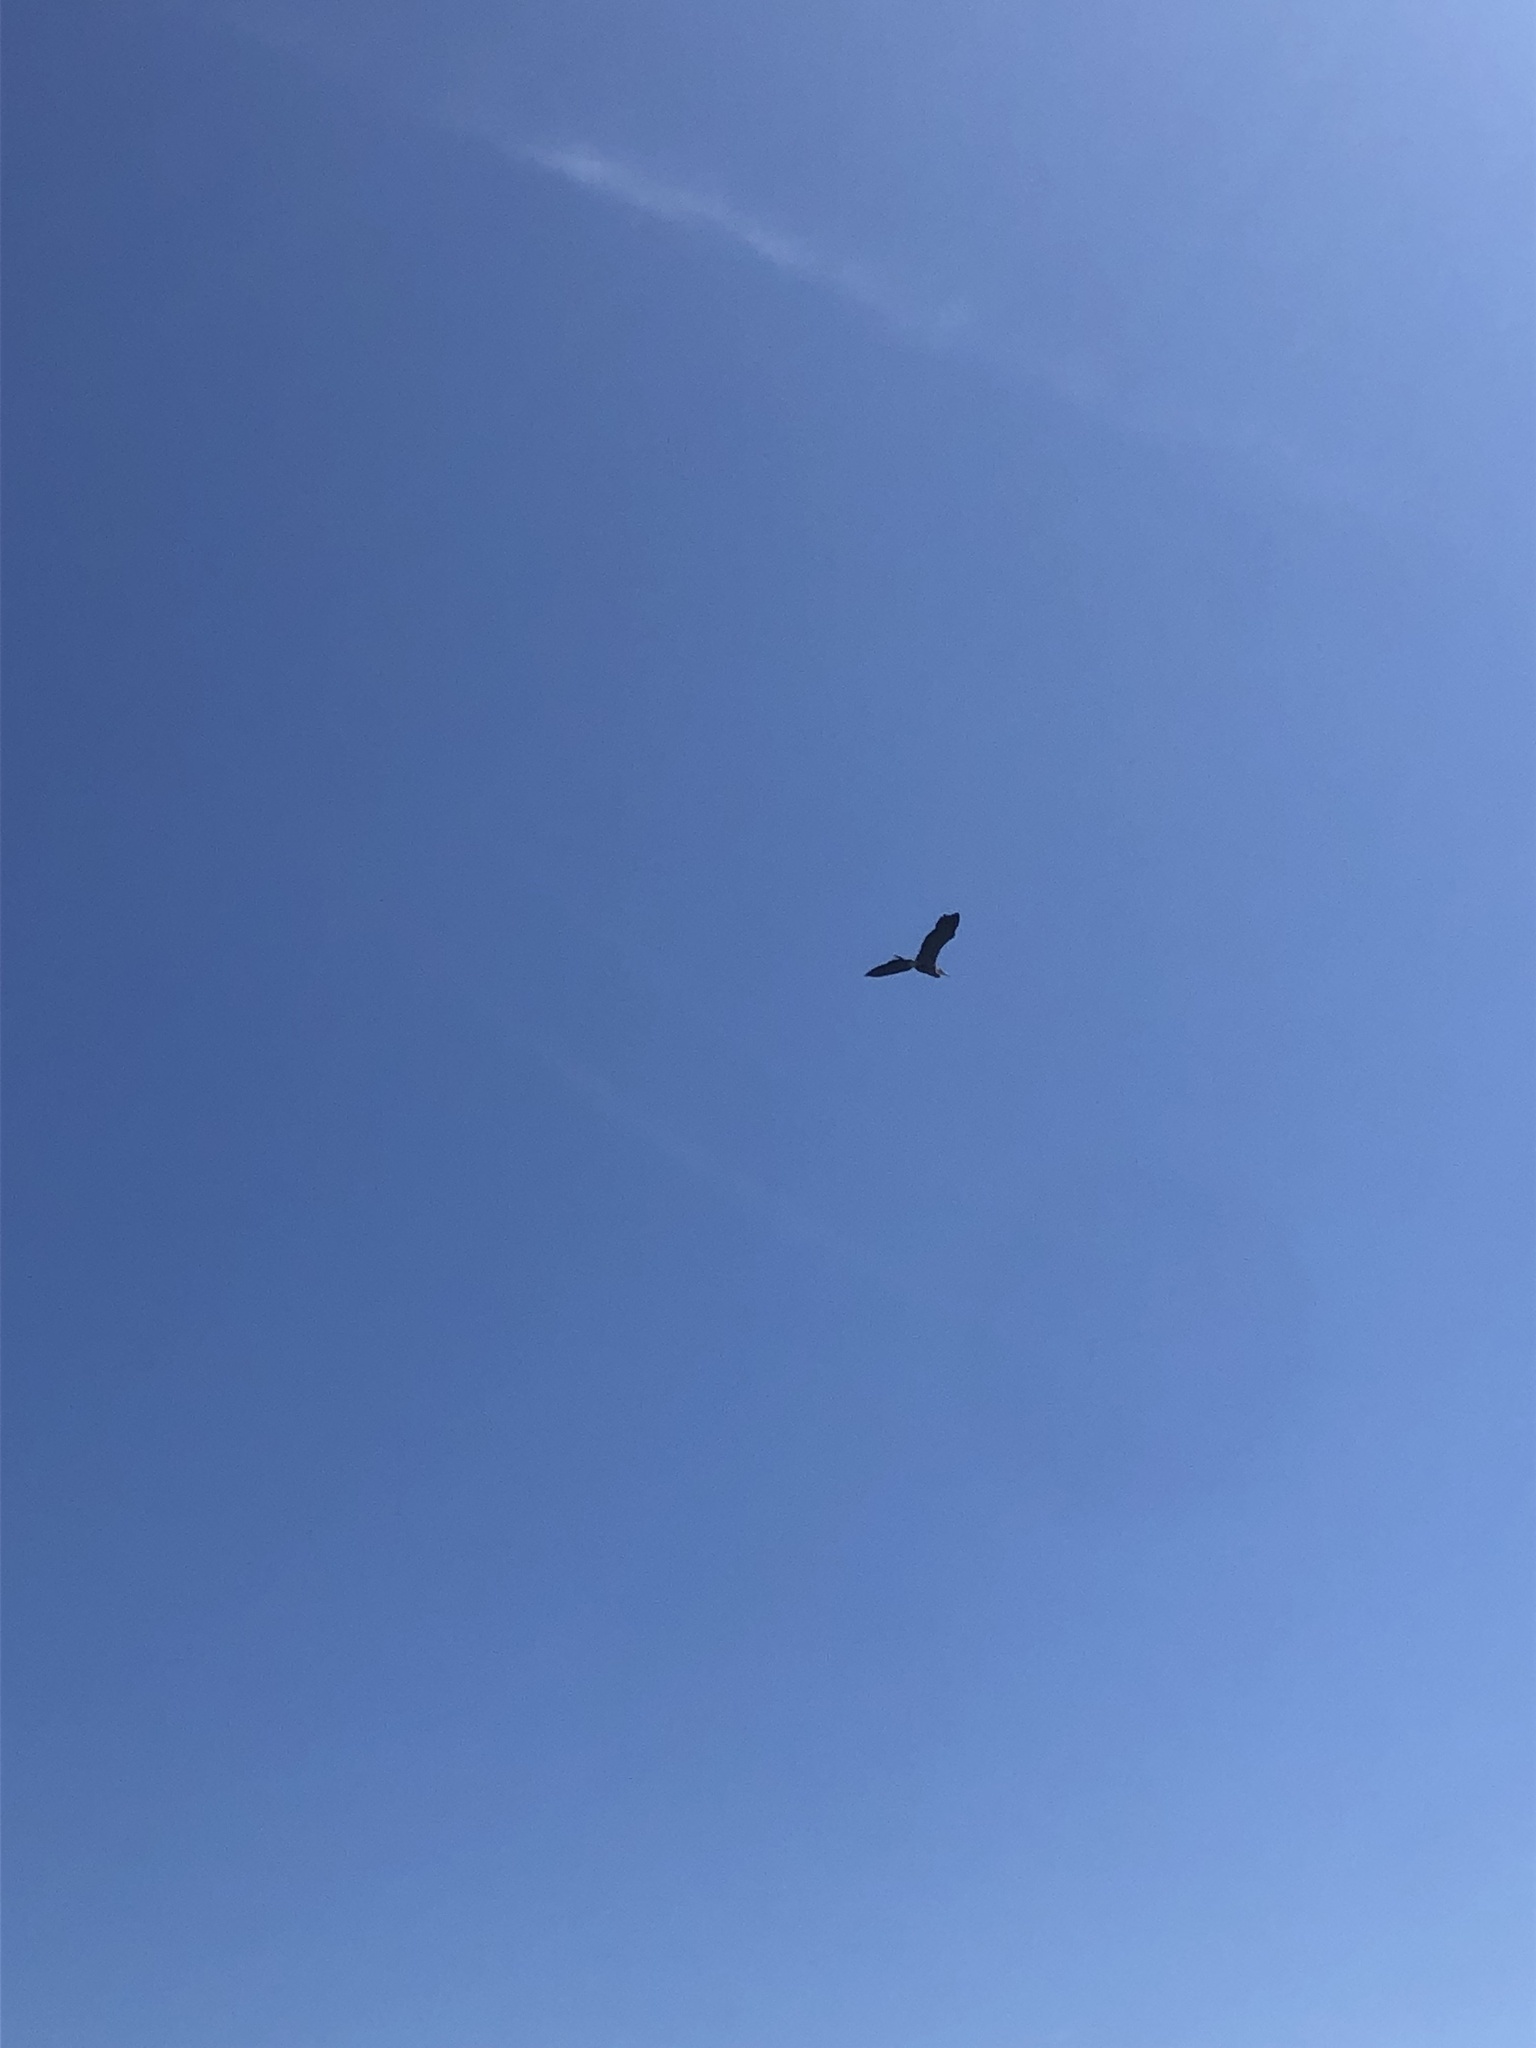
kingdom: Animalia
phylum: Chordata
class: Aves
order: Pelecaniformes
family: Ardeidae
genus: Ardea
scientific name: Ardea herodias
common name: Great blue heron
